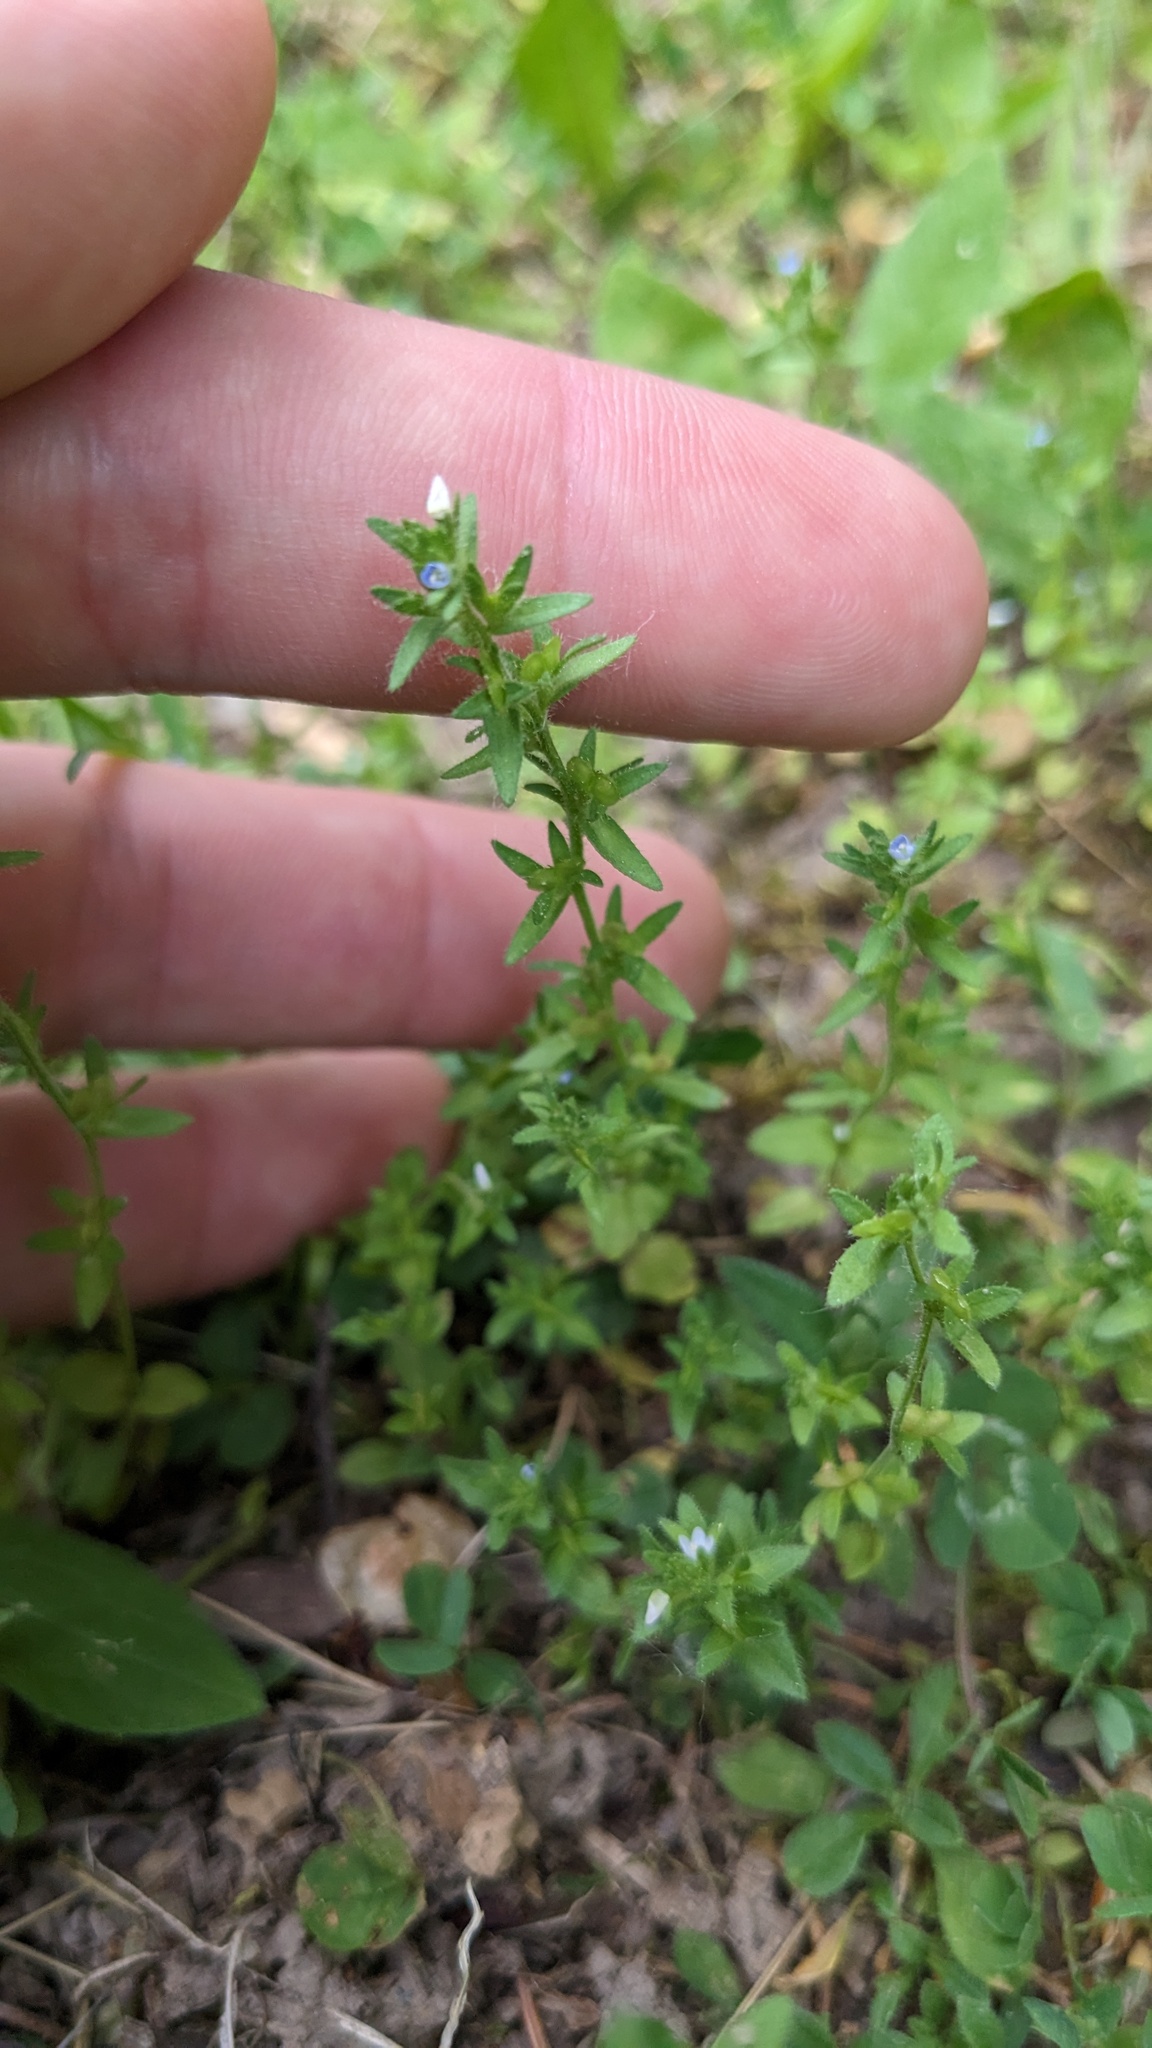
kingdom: Plantae
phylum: Tracheophyta
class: Magnoliopsida
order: Lamiales
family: Plantaginaceae
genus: Veronica
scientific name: Veronica arvensis
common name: Corn speedwell
